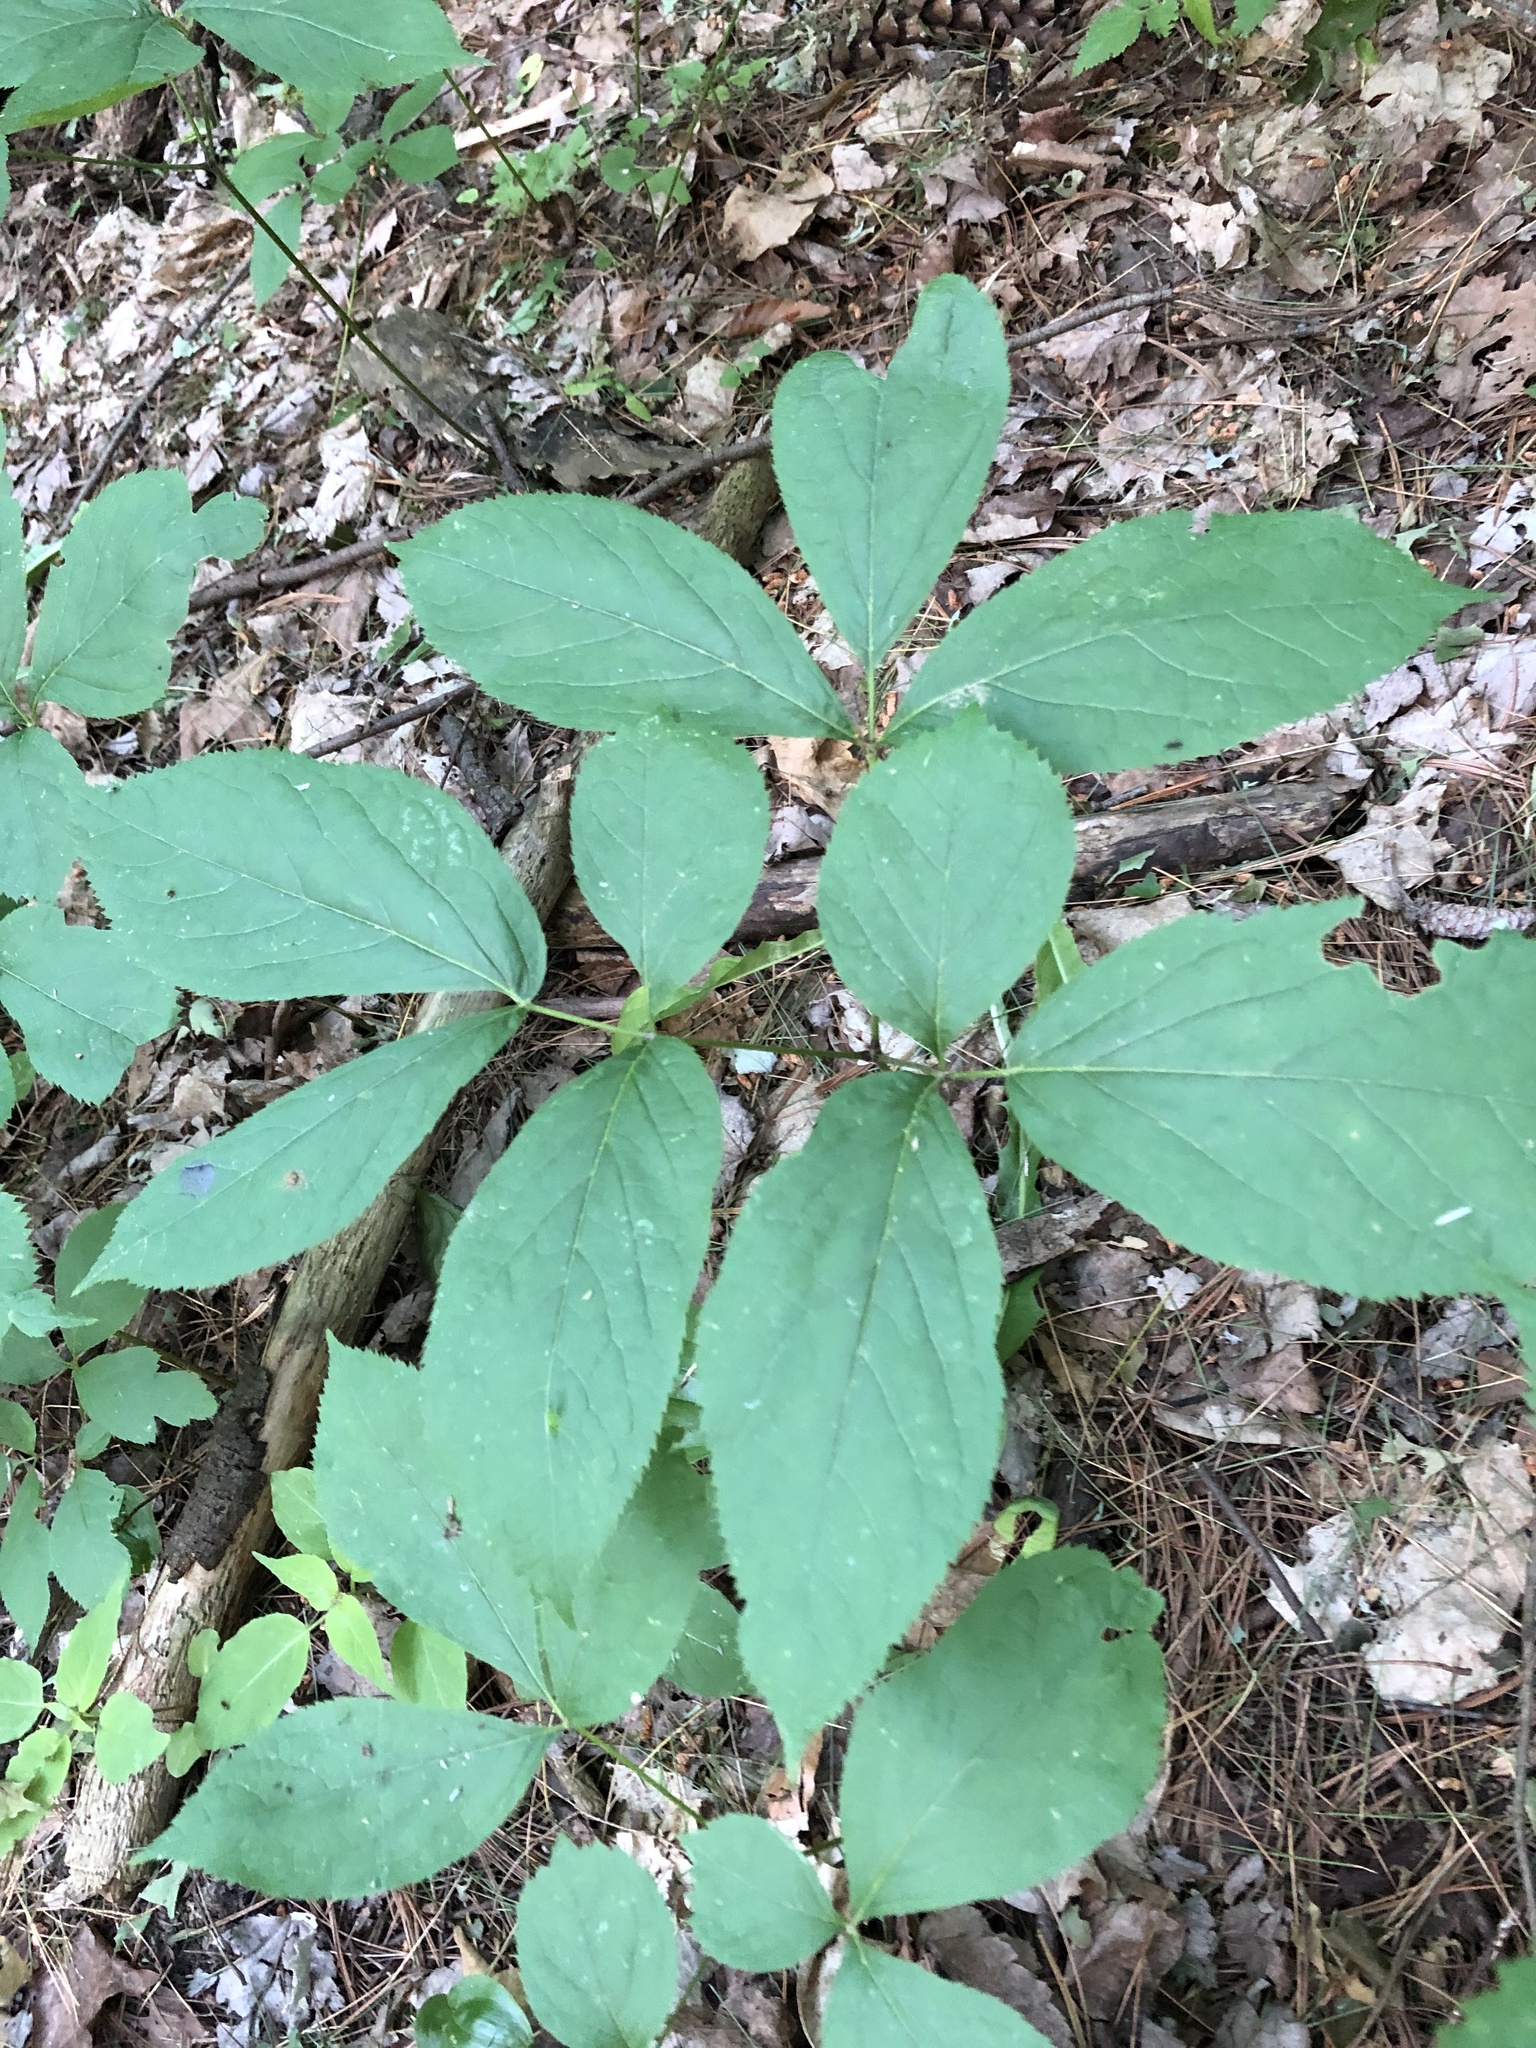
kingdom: Plantae
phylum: Tracheophyta
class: Magnoliopsida
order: Apiales
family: Araliaceae
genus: Aralia
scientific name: Aralia nudicaulis
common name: Wild sarsaparilla
